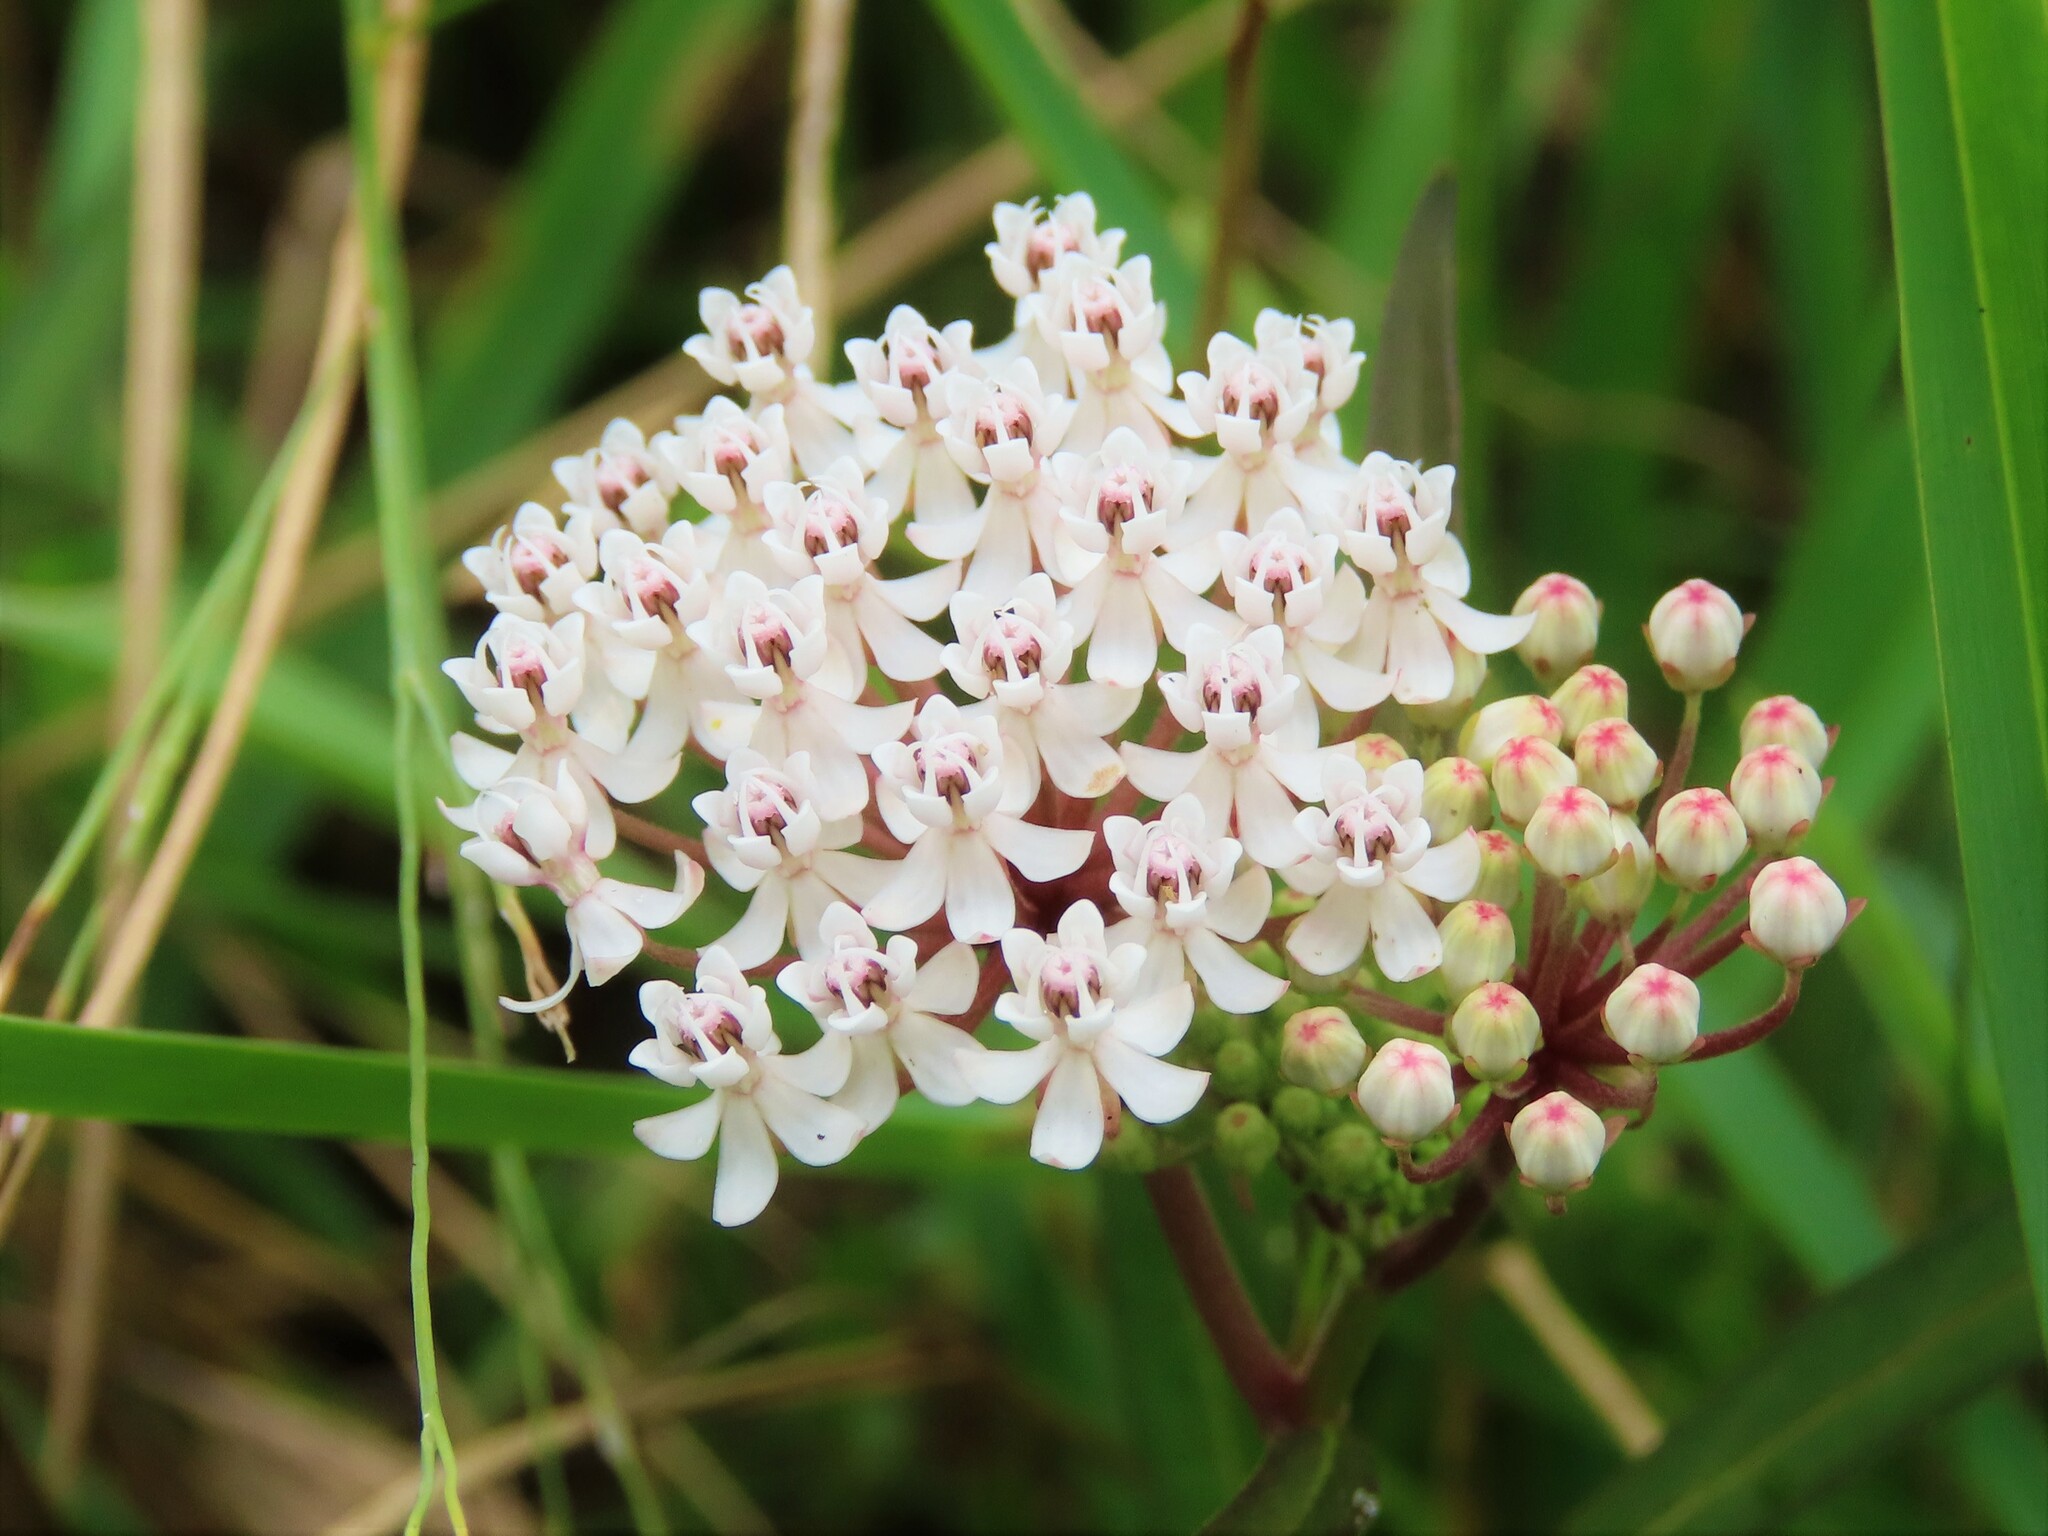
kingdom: Plantae
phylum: Tracheophyta
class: Magnoliopsida
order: Gentianales
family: Apocynaceae
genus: Asclepias
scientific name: Asclepias perennis
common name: Smooth-seed milkweed
